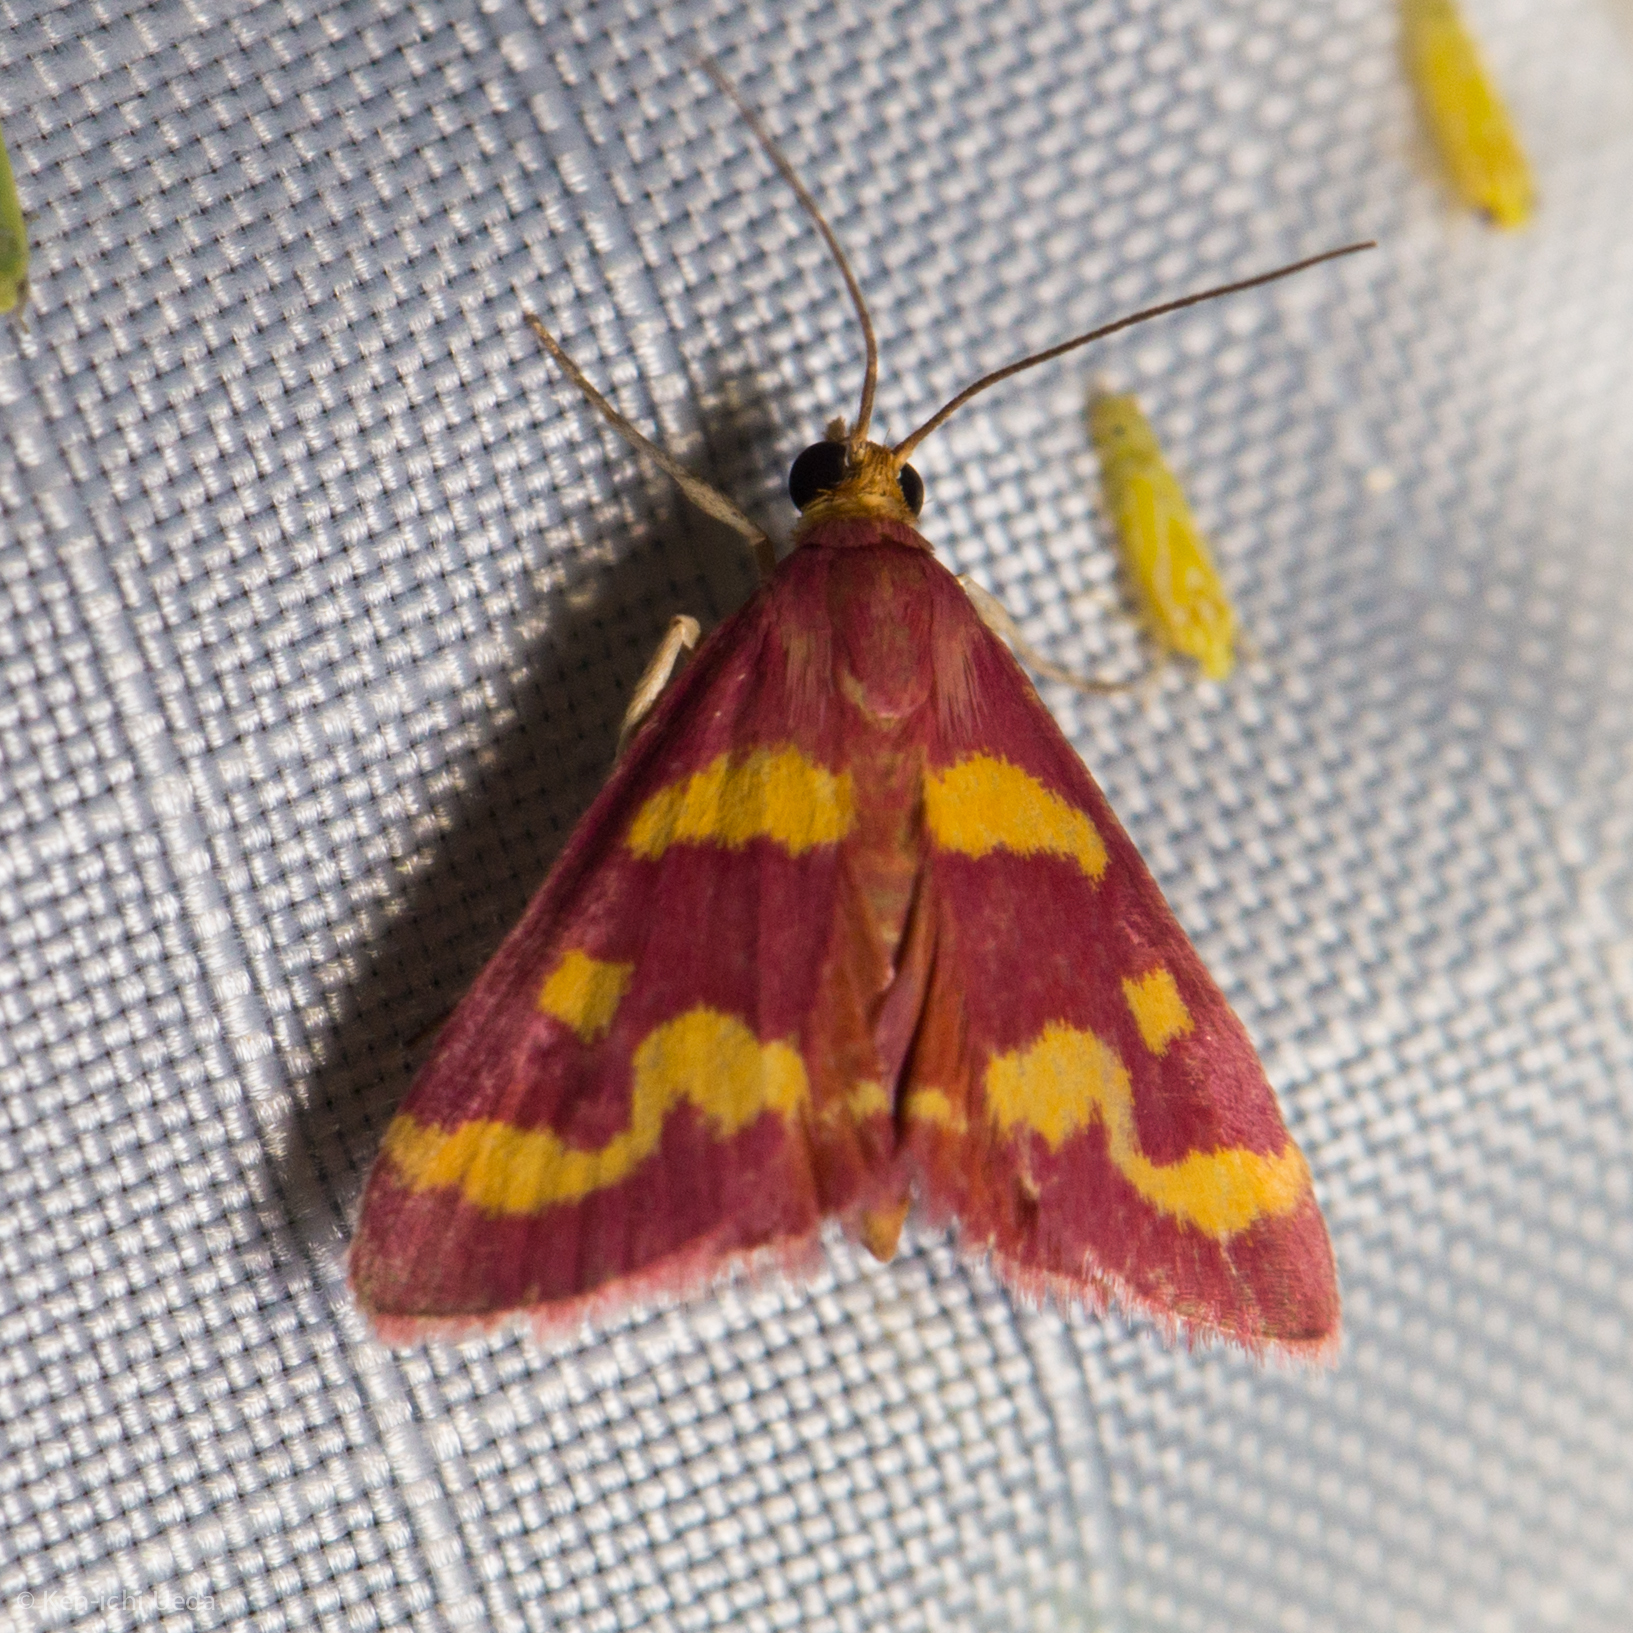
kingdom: Animalia
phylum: Arthropoda
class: Insecta
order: Lepidoptera
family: Crambidae
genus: Pyrausta
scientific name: Pyrausta tyralis
